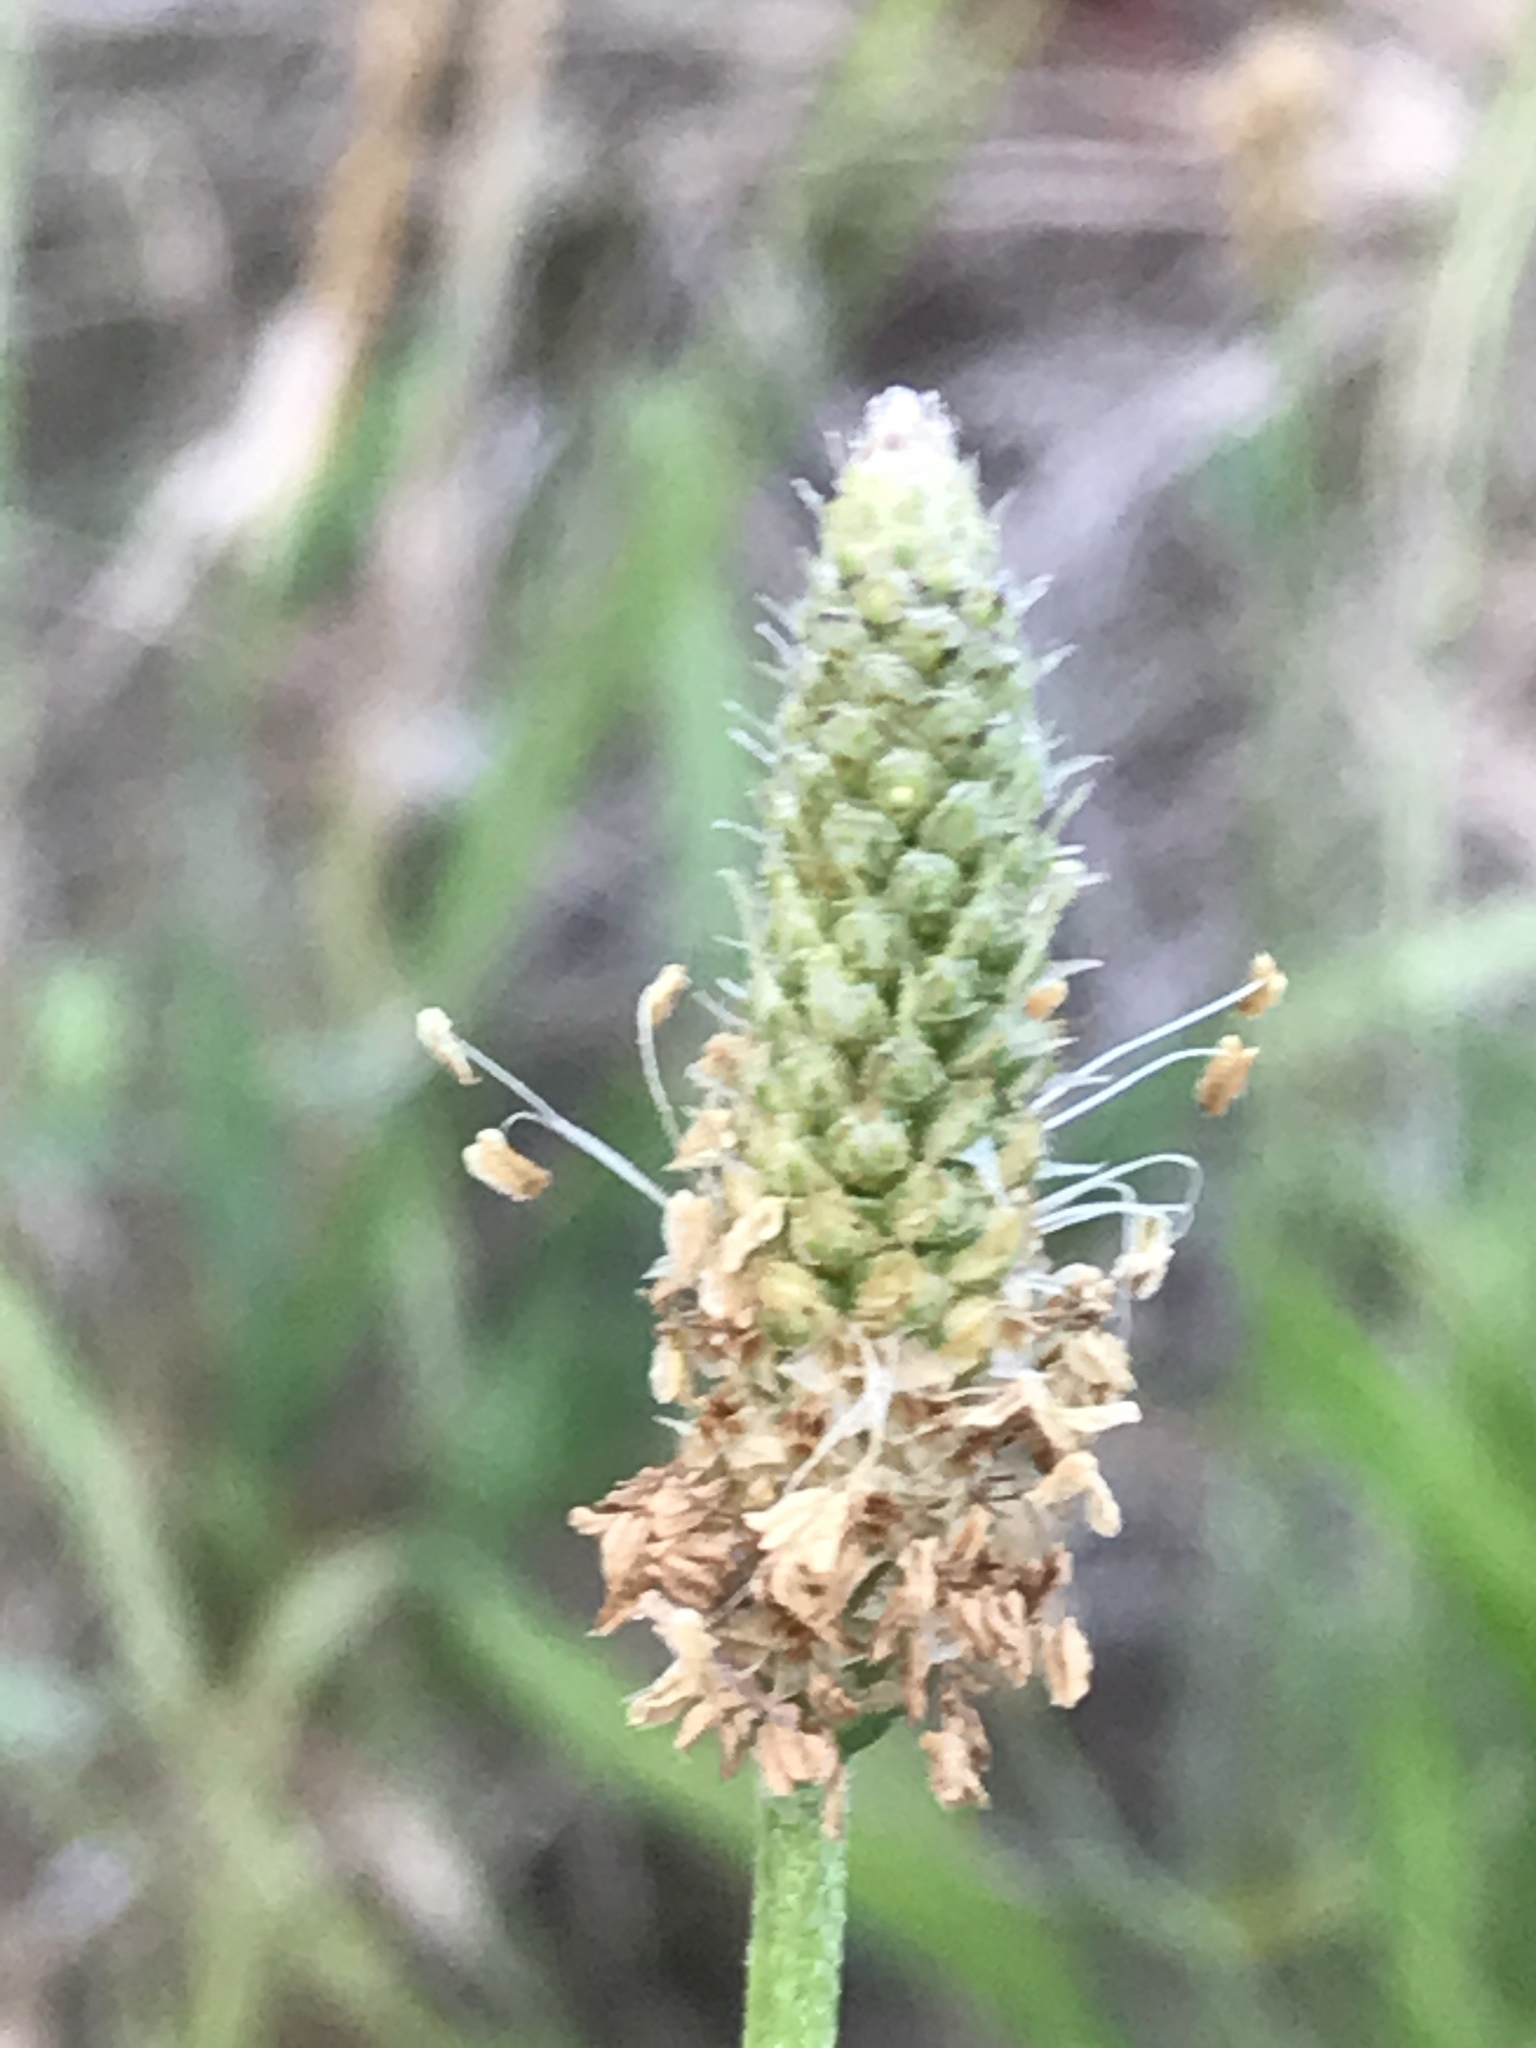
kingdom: Plantae
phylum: Tracheophyta
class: Magnoliopsida
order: Lamiales
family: Plantaginaceae
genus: Plantago
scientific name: Plantago lanceolata
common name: Ribwort plantain
